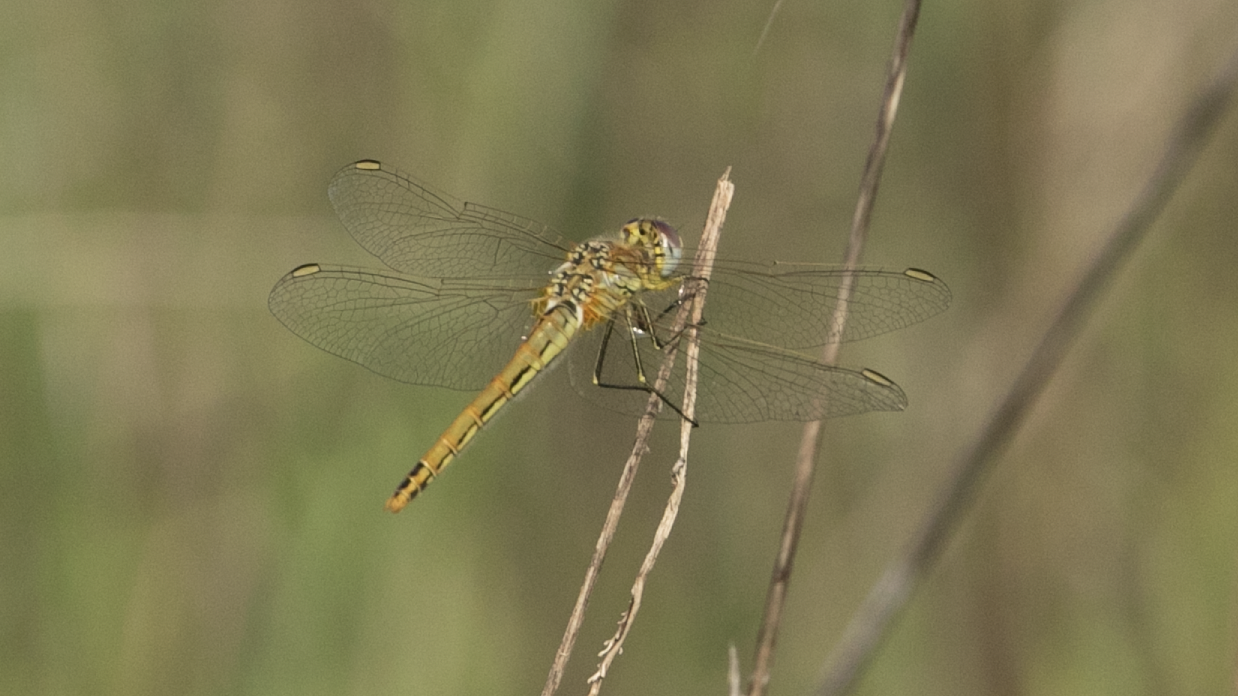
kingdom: Animalia
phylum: Arthropoda
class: Insecta
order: Odonata
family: Libellulidae
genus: Sympetrum
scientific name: Sympetrum fonscolombii
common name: Red-veined darter
